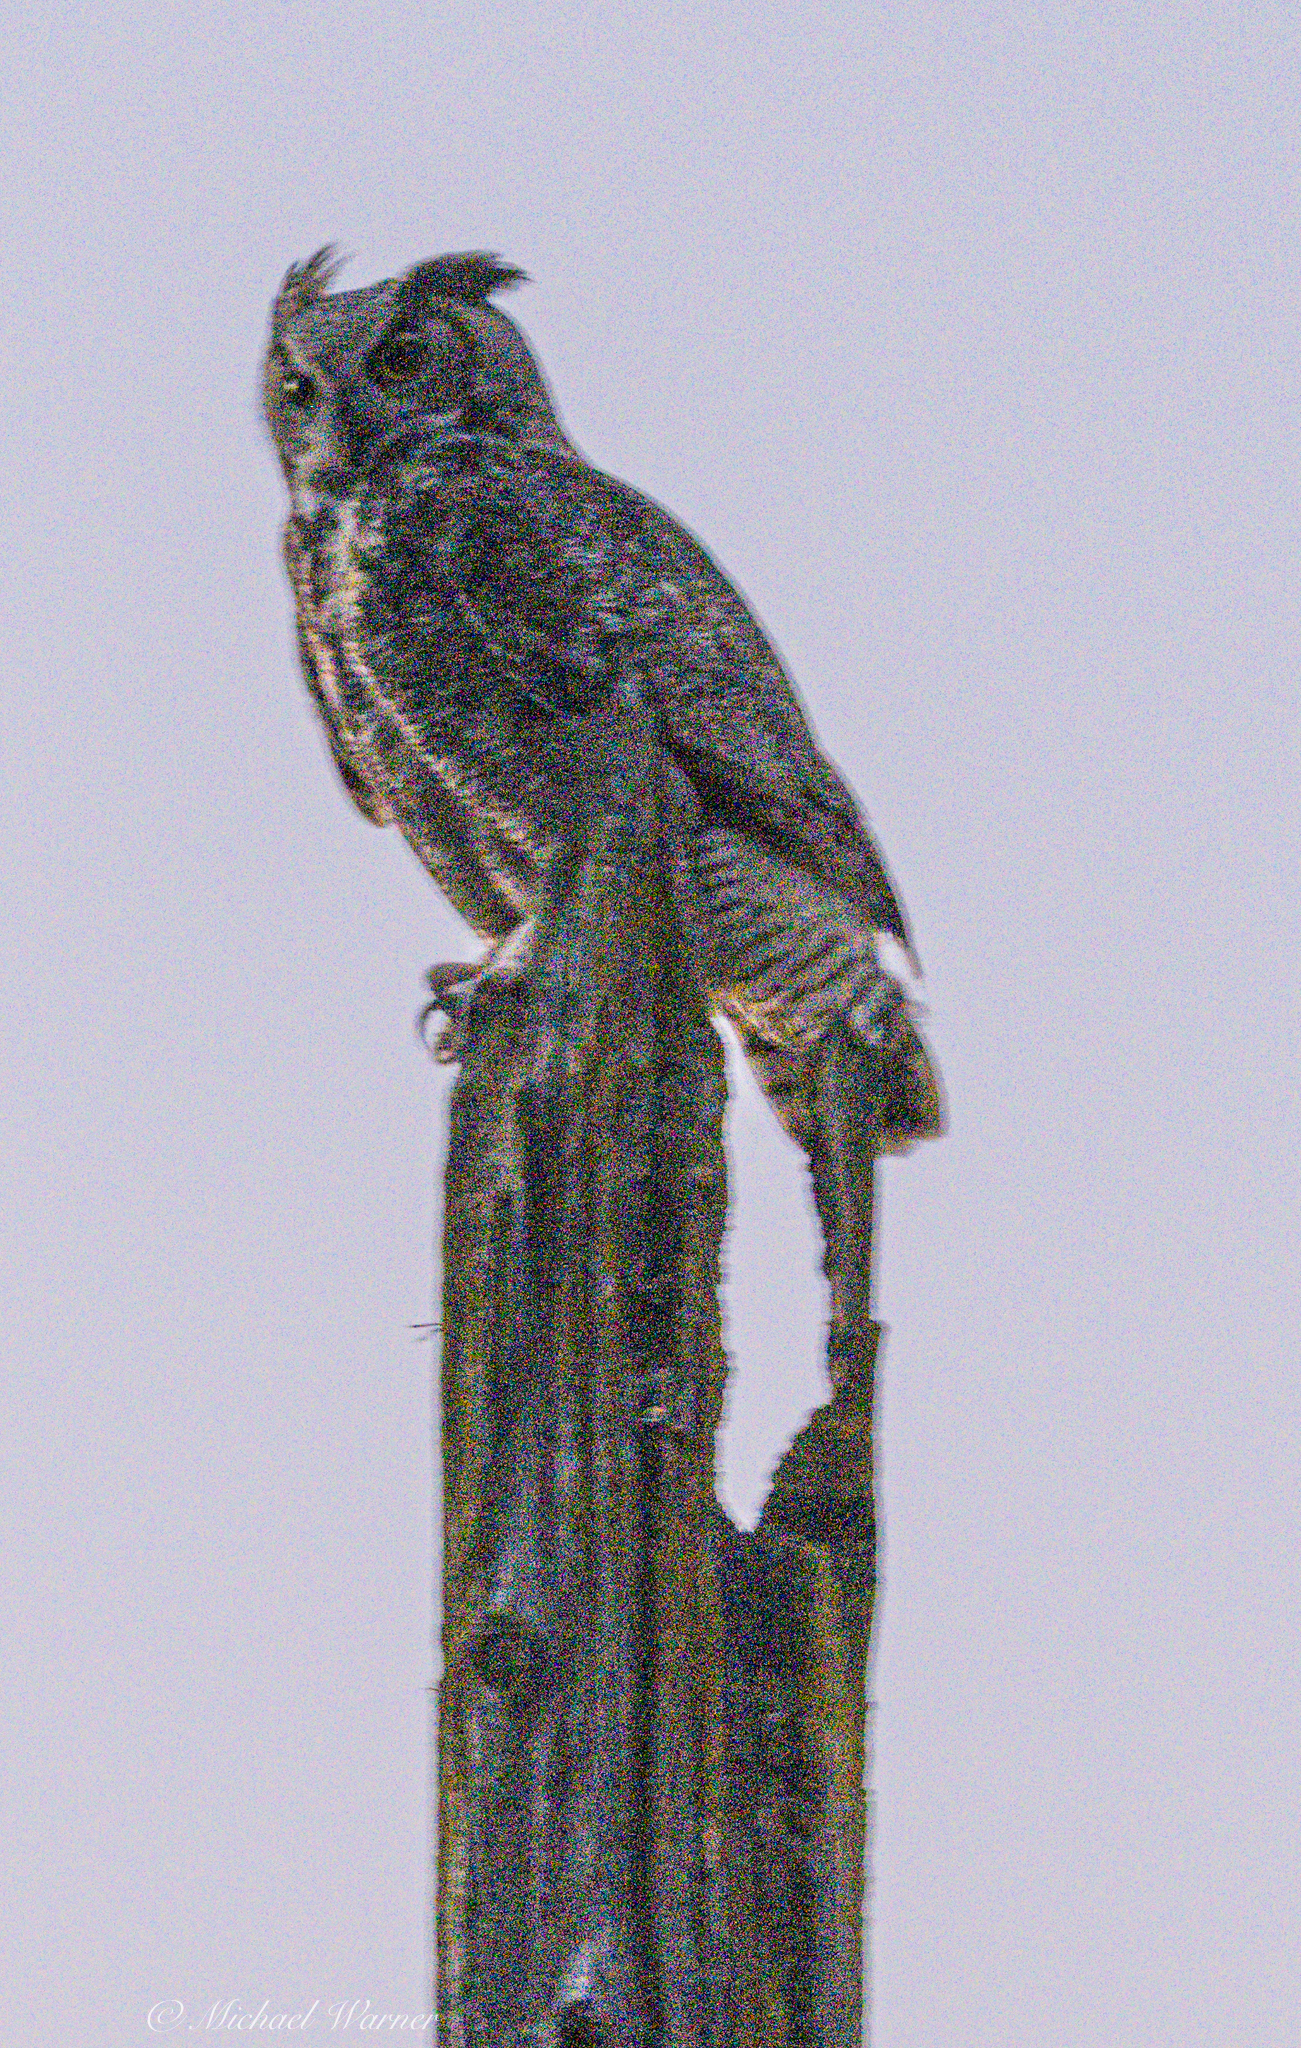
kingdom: Animalia
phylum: Chordata
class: Aves
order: Strigiformes
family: Strigidae
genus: Bubo
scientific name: Bubo virginianus
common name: Great horned owl
